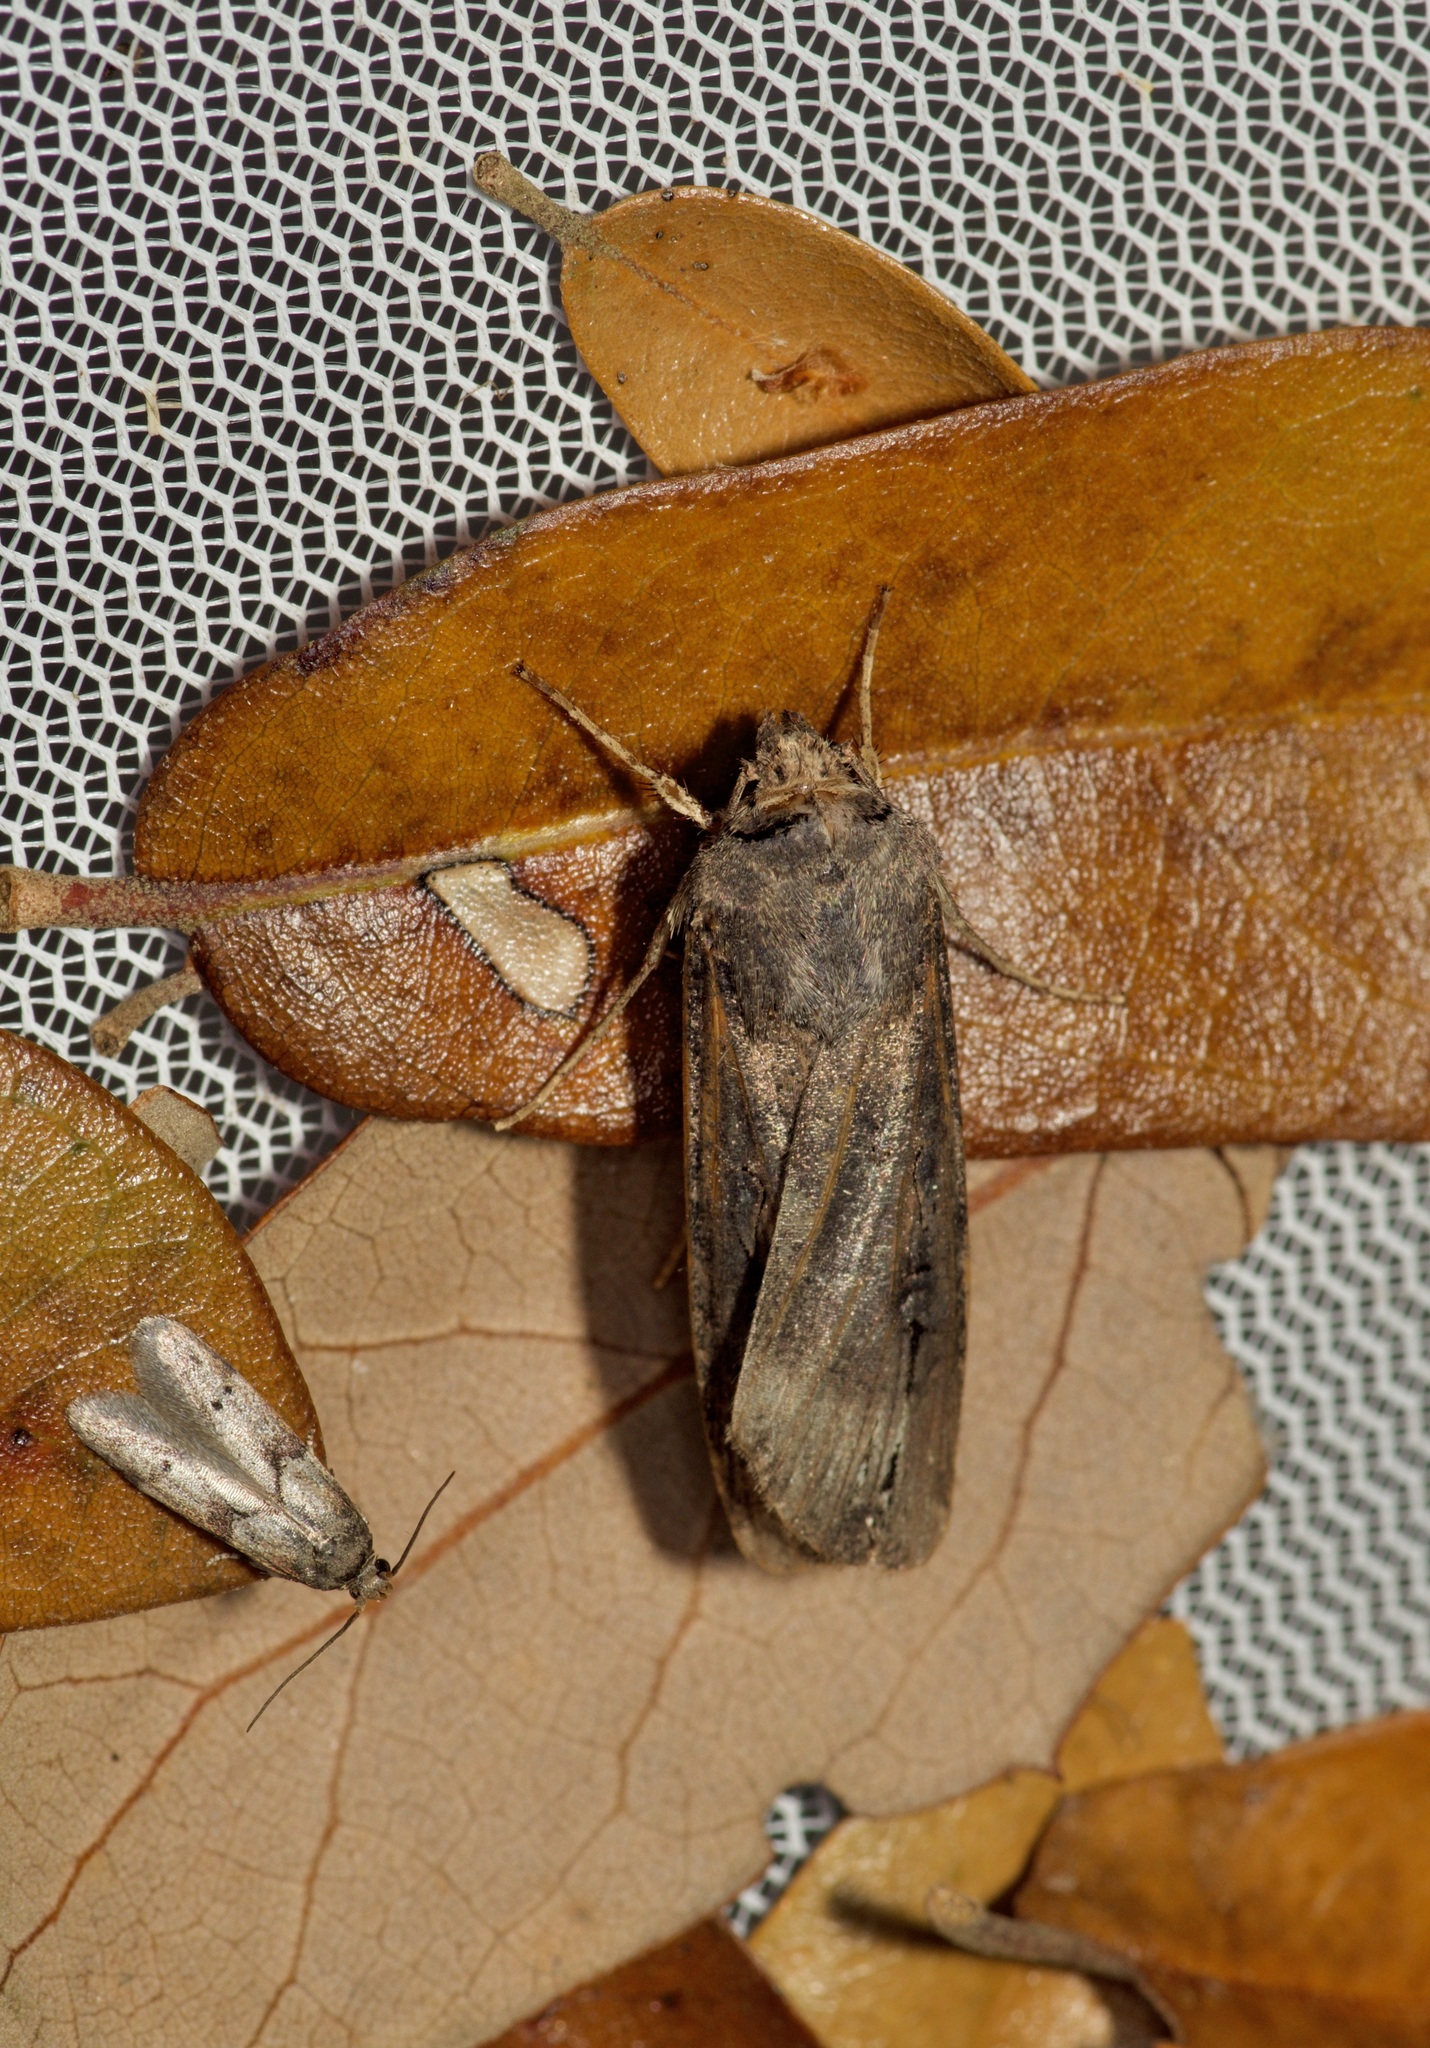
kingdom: Animalia
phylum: Arthropoda
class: Insecta
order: Lepidoptera
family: Noctuidae
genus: Agrotis
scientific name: Agrotis ipsilon
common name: Dark sword-grass
